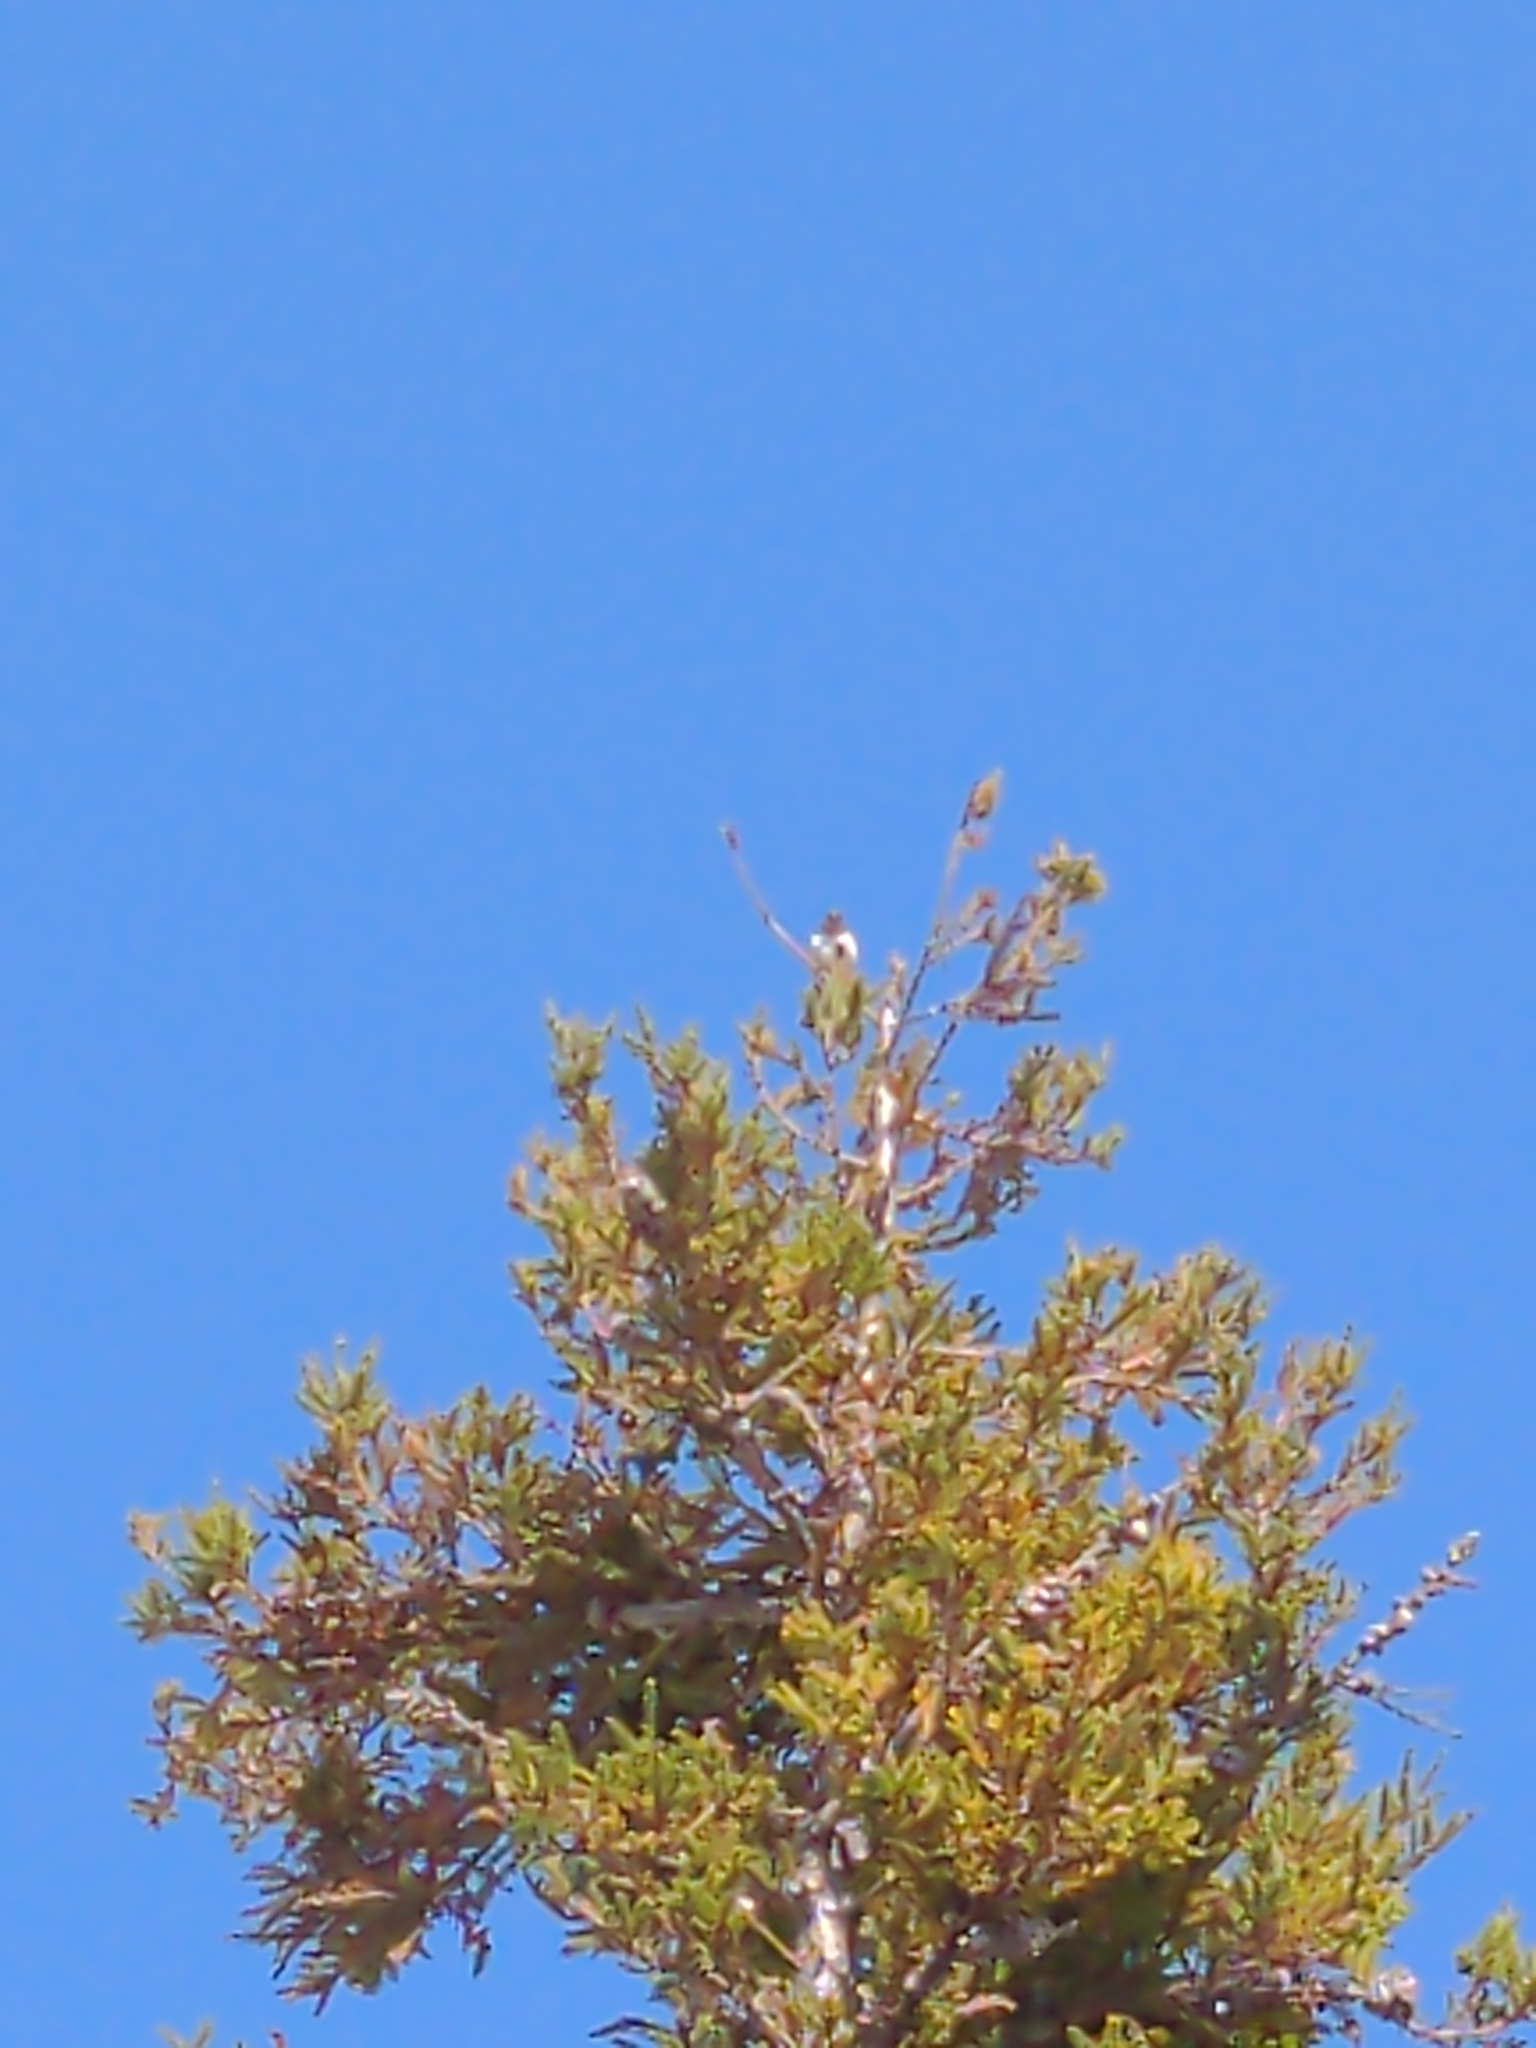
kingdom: Animalia
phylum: Chordata
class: Aves
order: Passeriformes
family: Passerellidae
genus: Junco
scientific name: Junco hyemalis
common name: Dark-eyed junco
